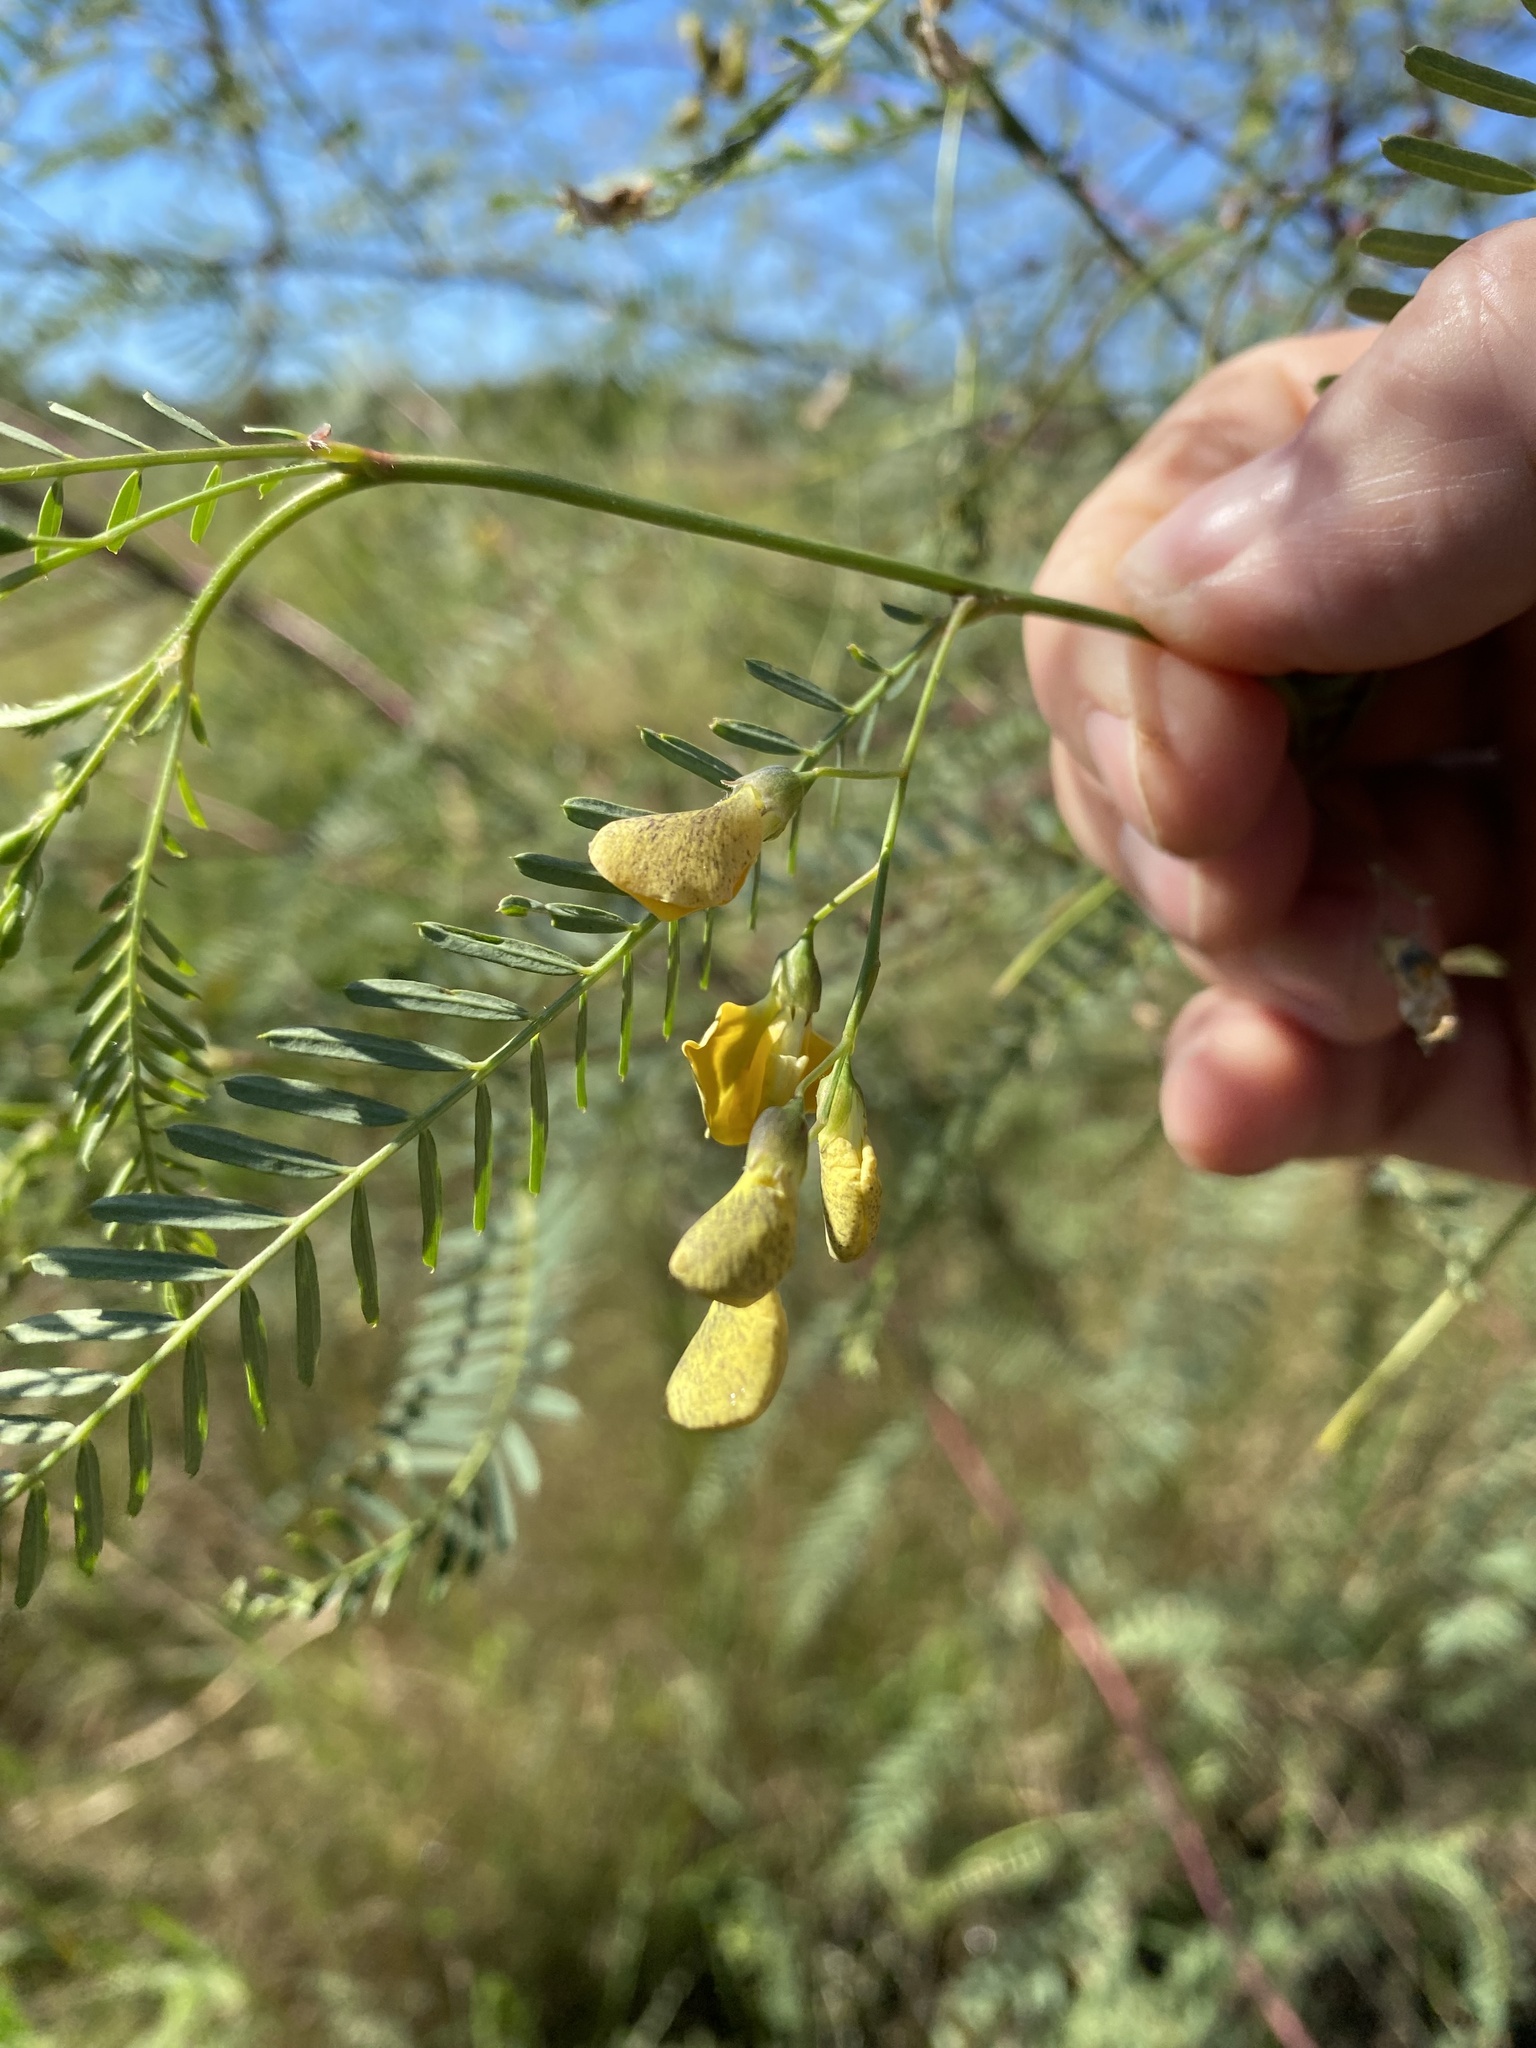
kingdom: Plantae
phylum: Tracheophyta
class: Magnoliopsida
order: Fabales
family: Fabaceae
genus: Sesbania
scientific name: Sesbania cannabina
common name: Canicha
